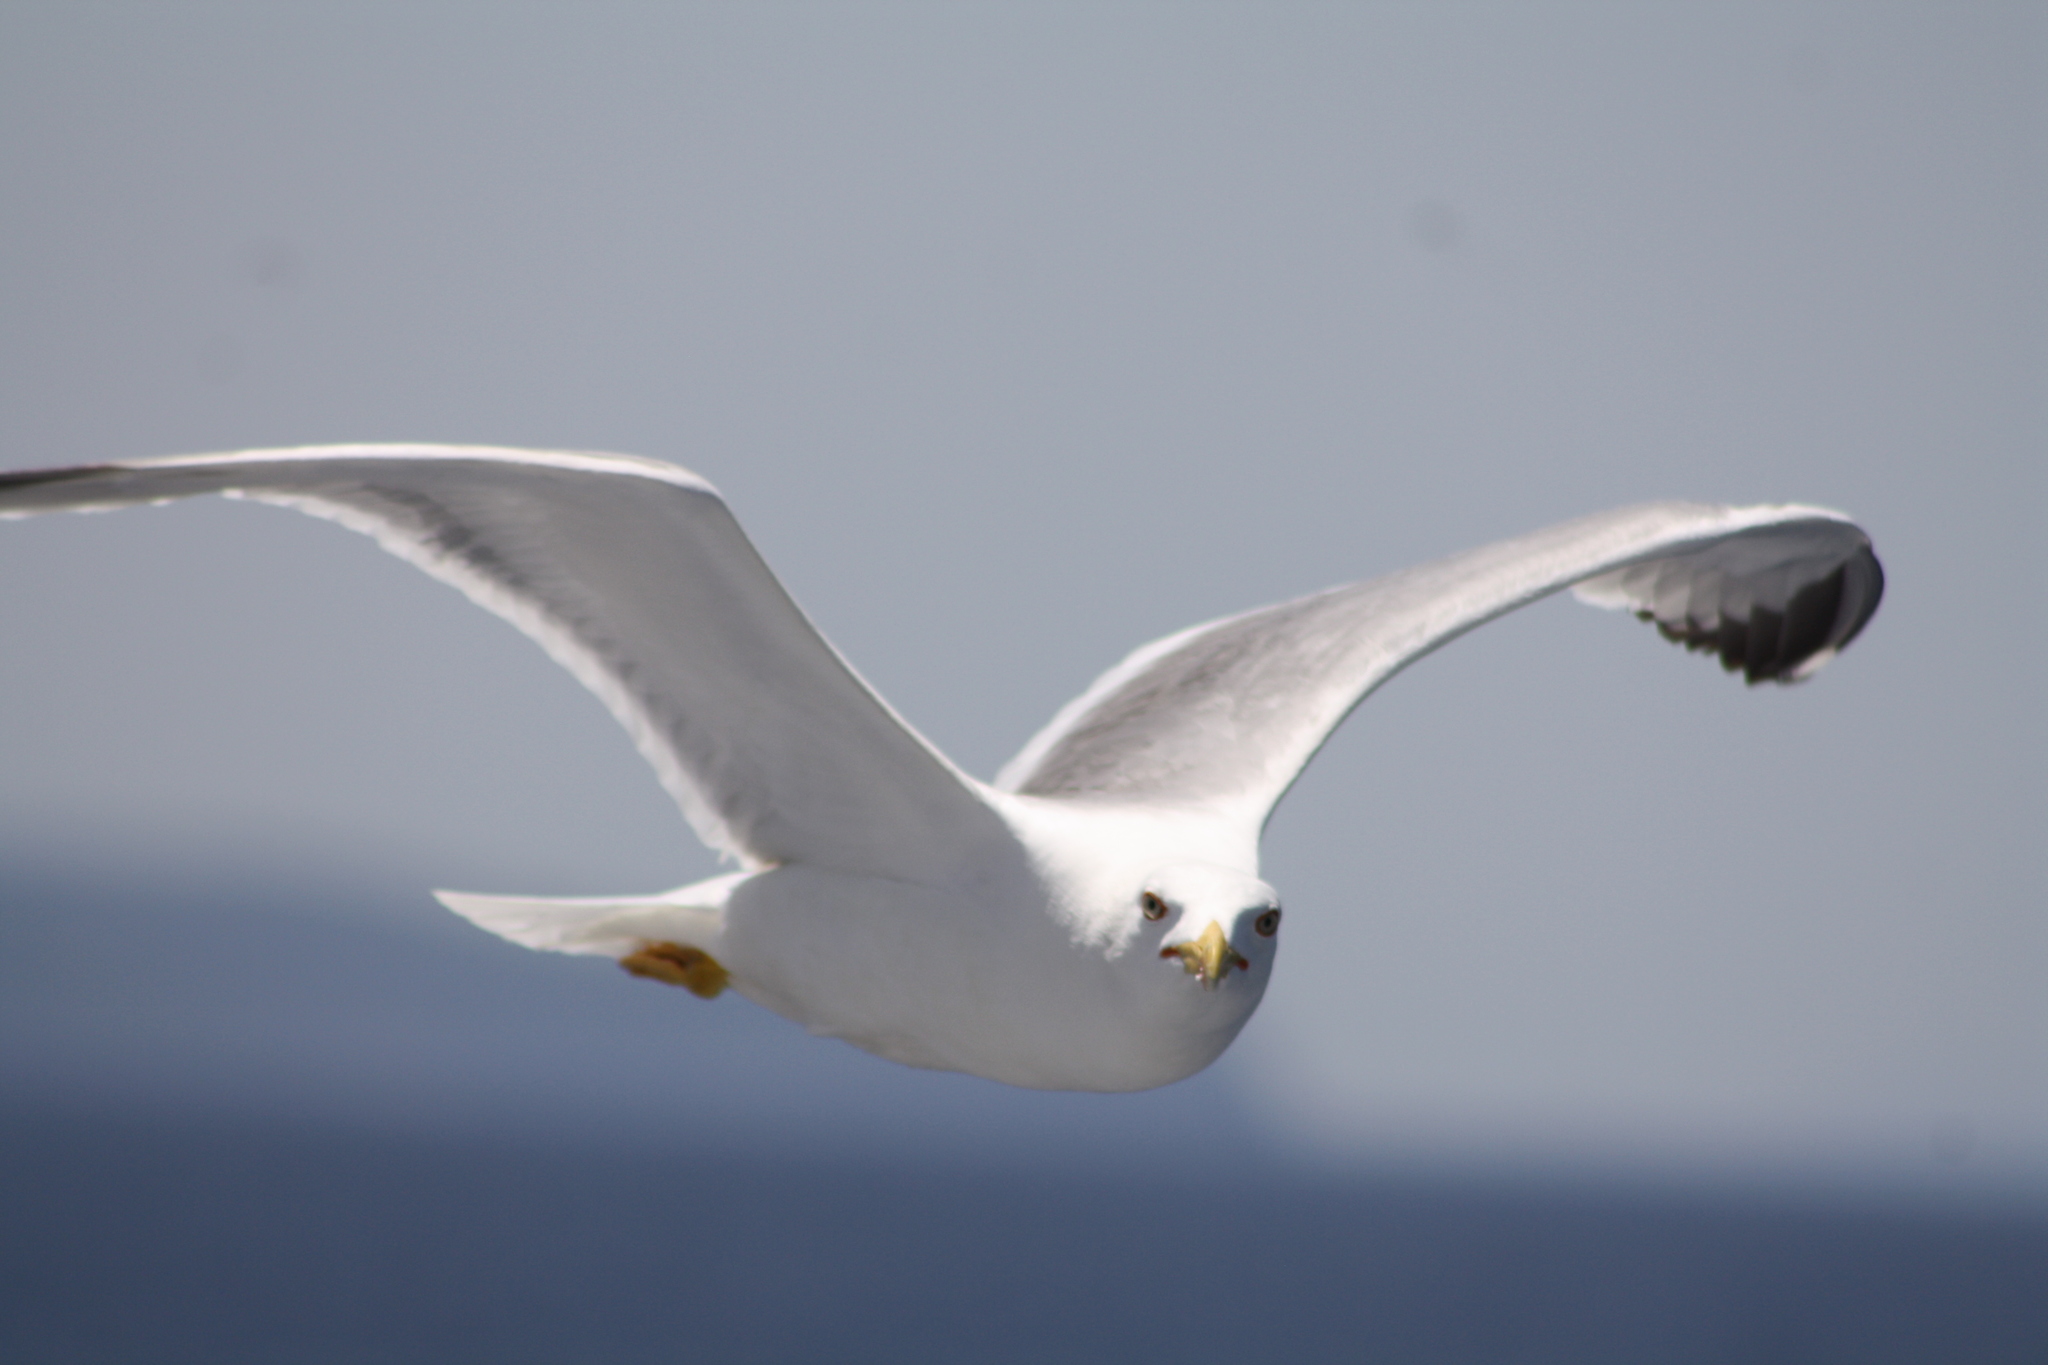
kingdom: Animalia
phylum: Chordata
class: Aves
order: Charadriiformes
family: Laridae
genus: Larus
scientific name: Larus michahellis
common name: Yellow-legged gull
